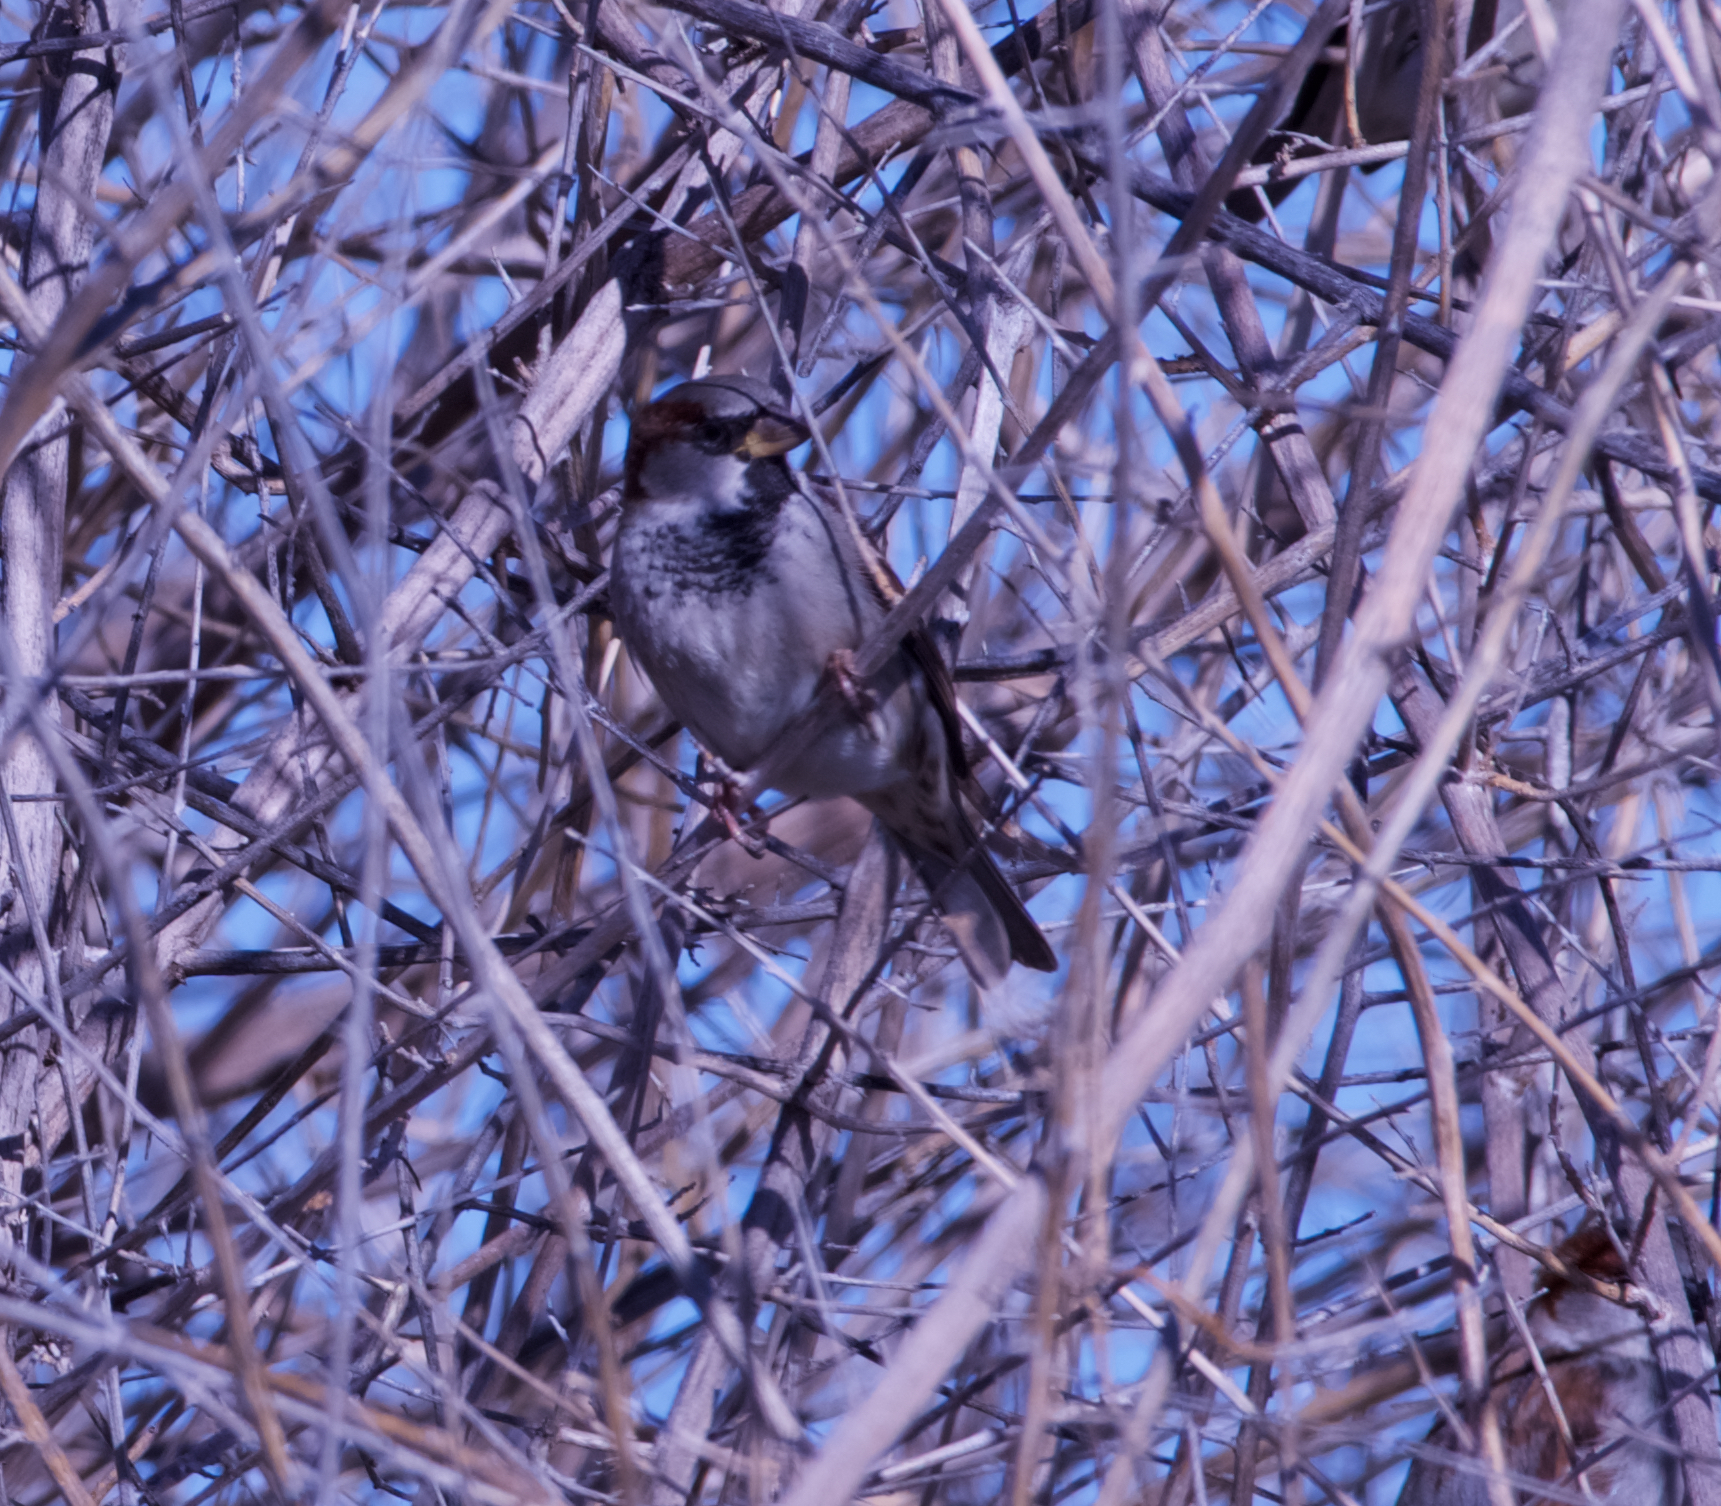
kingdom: Animalia
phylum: Chordata
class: Aves
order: Passeriformes
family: Passeridae
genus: Passer
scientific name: Passer domesticus
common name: House sparrow
